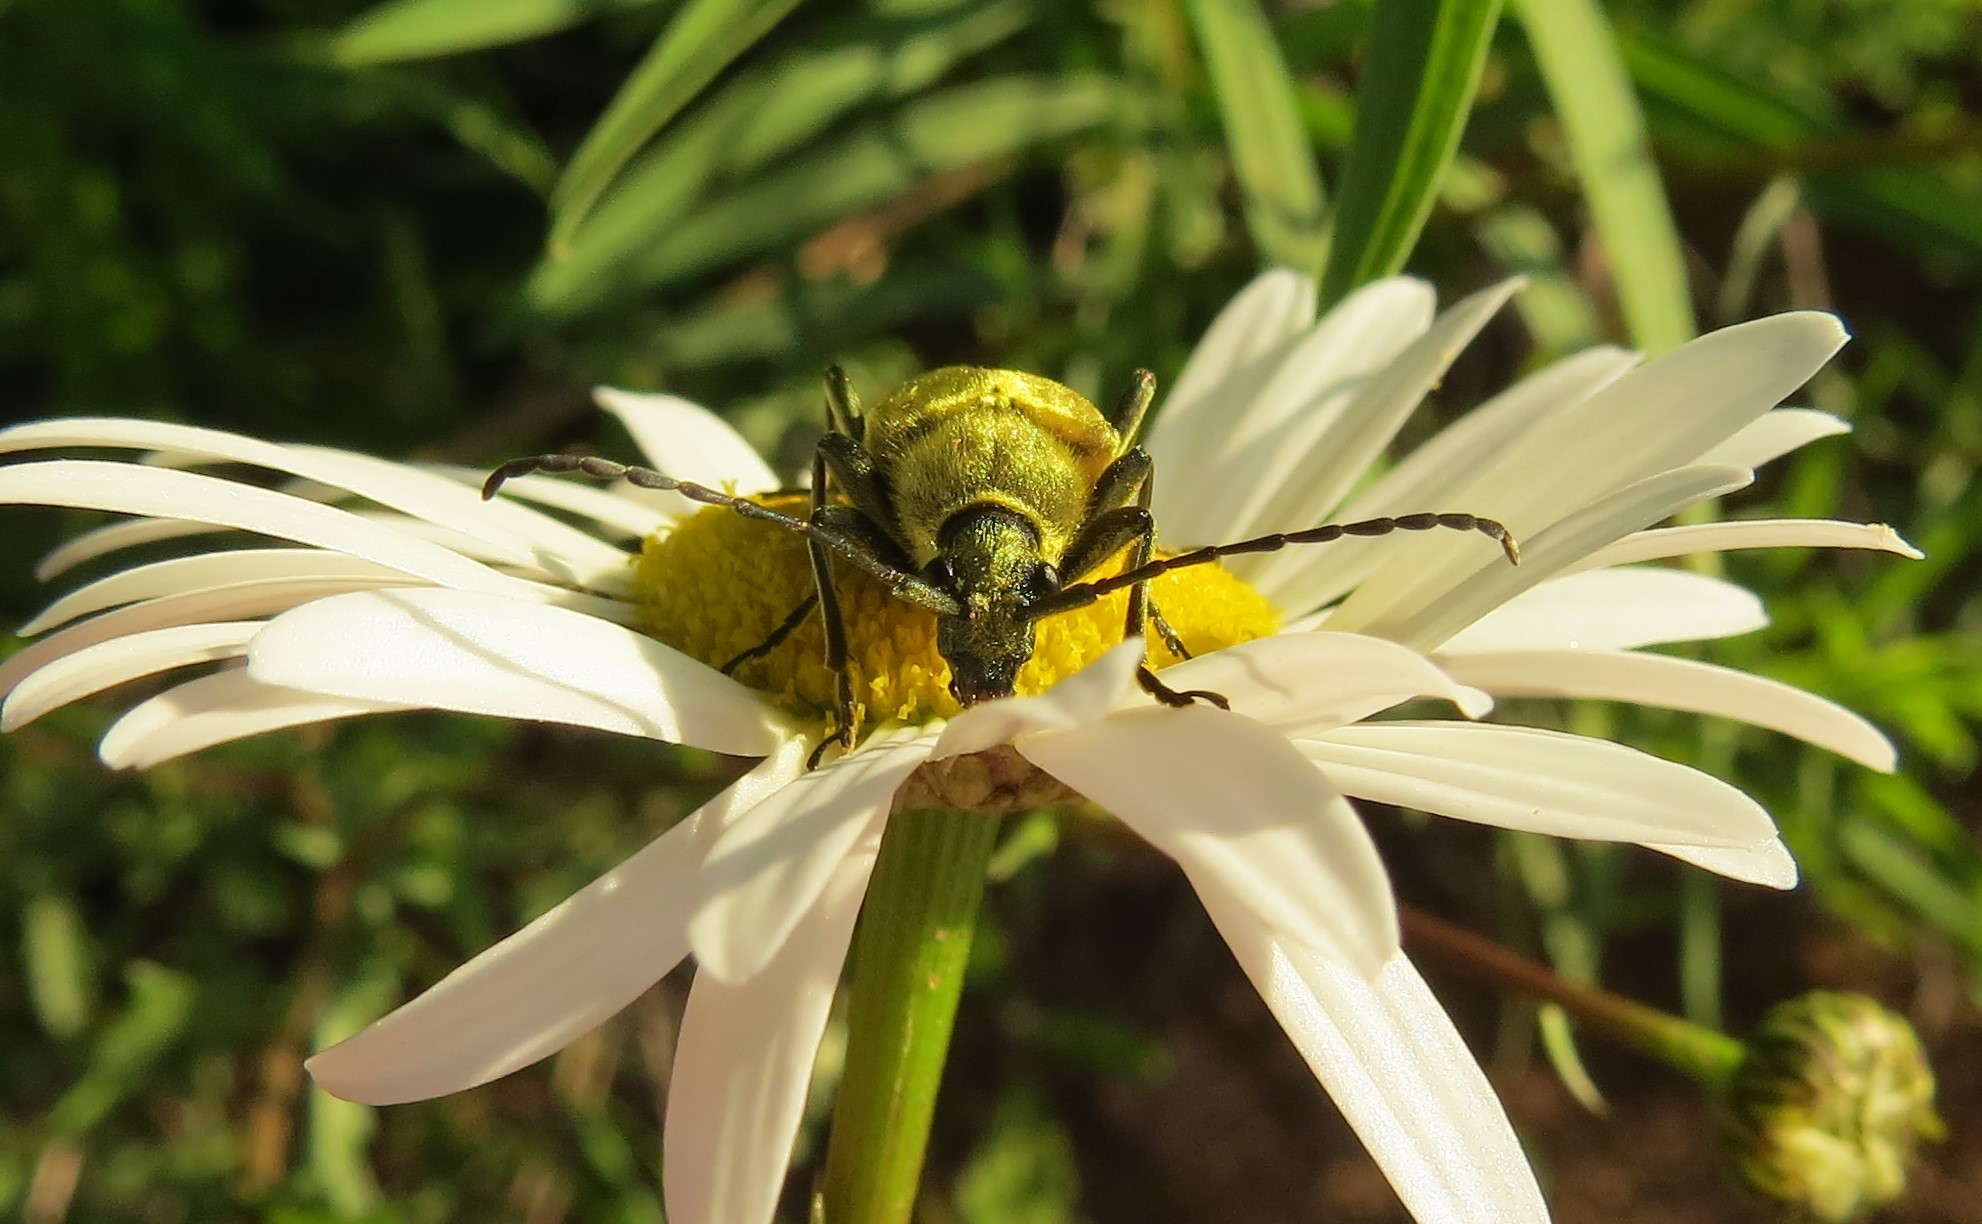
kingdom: Animalia
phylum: Arthropoda
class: Insecta
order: Coleoptera
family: Cerambycidae
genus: Cosmosalia
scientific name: Cosmosalia chrysocoma
